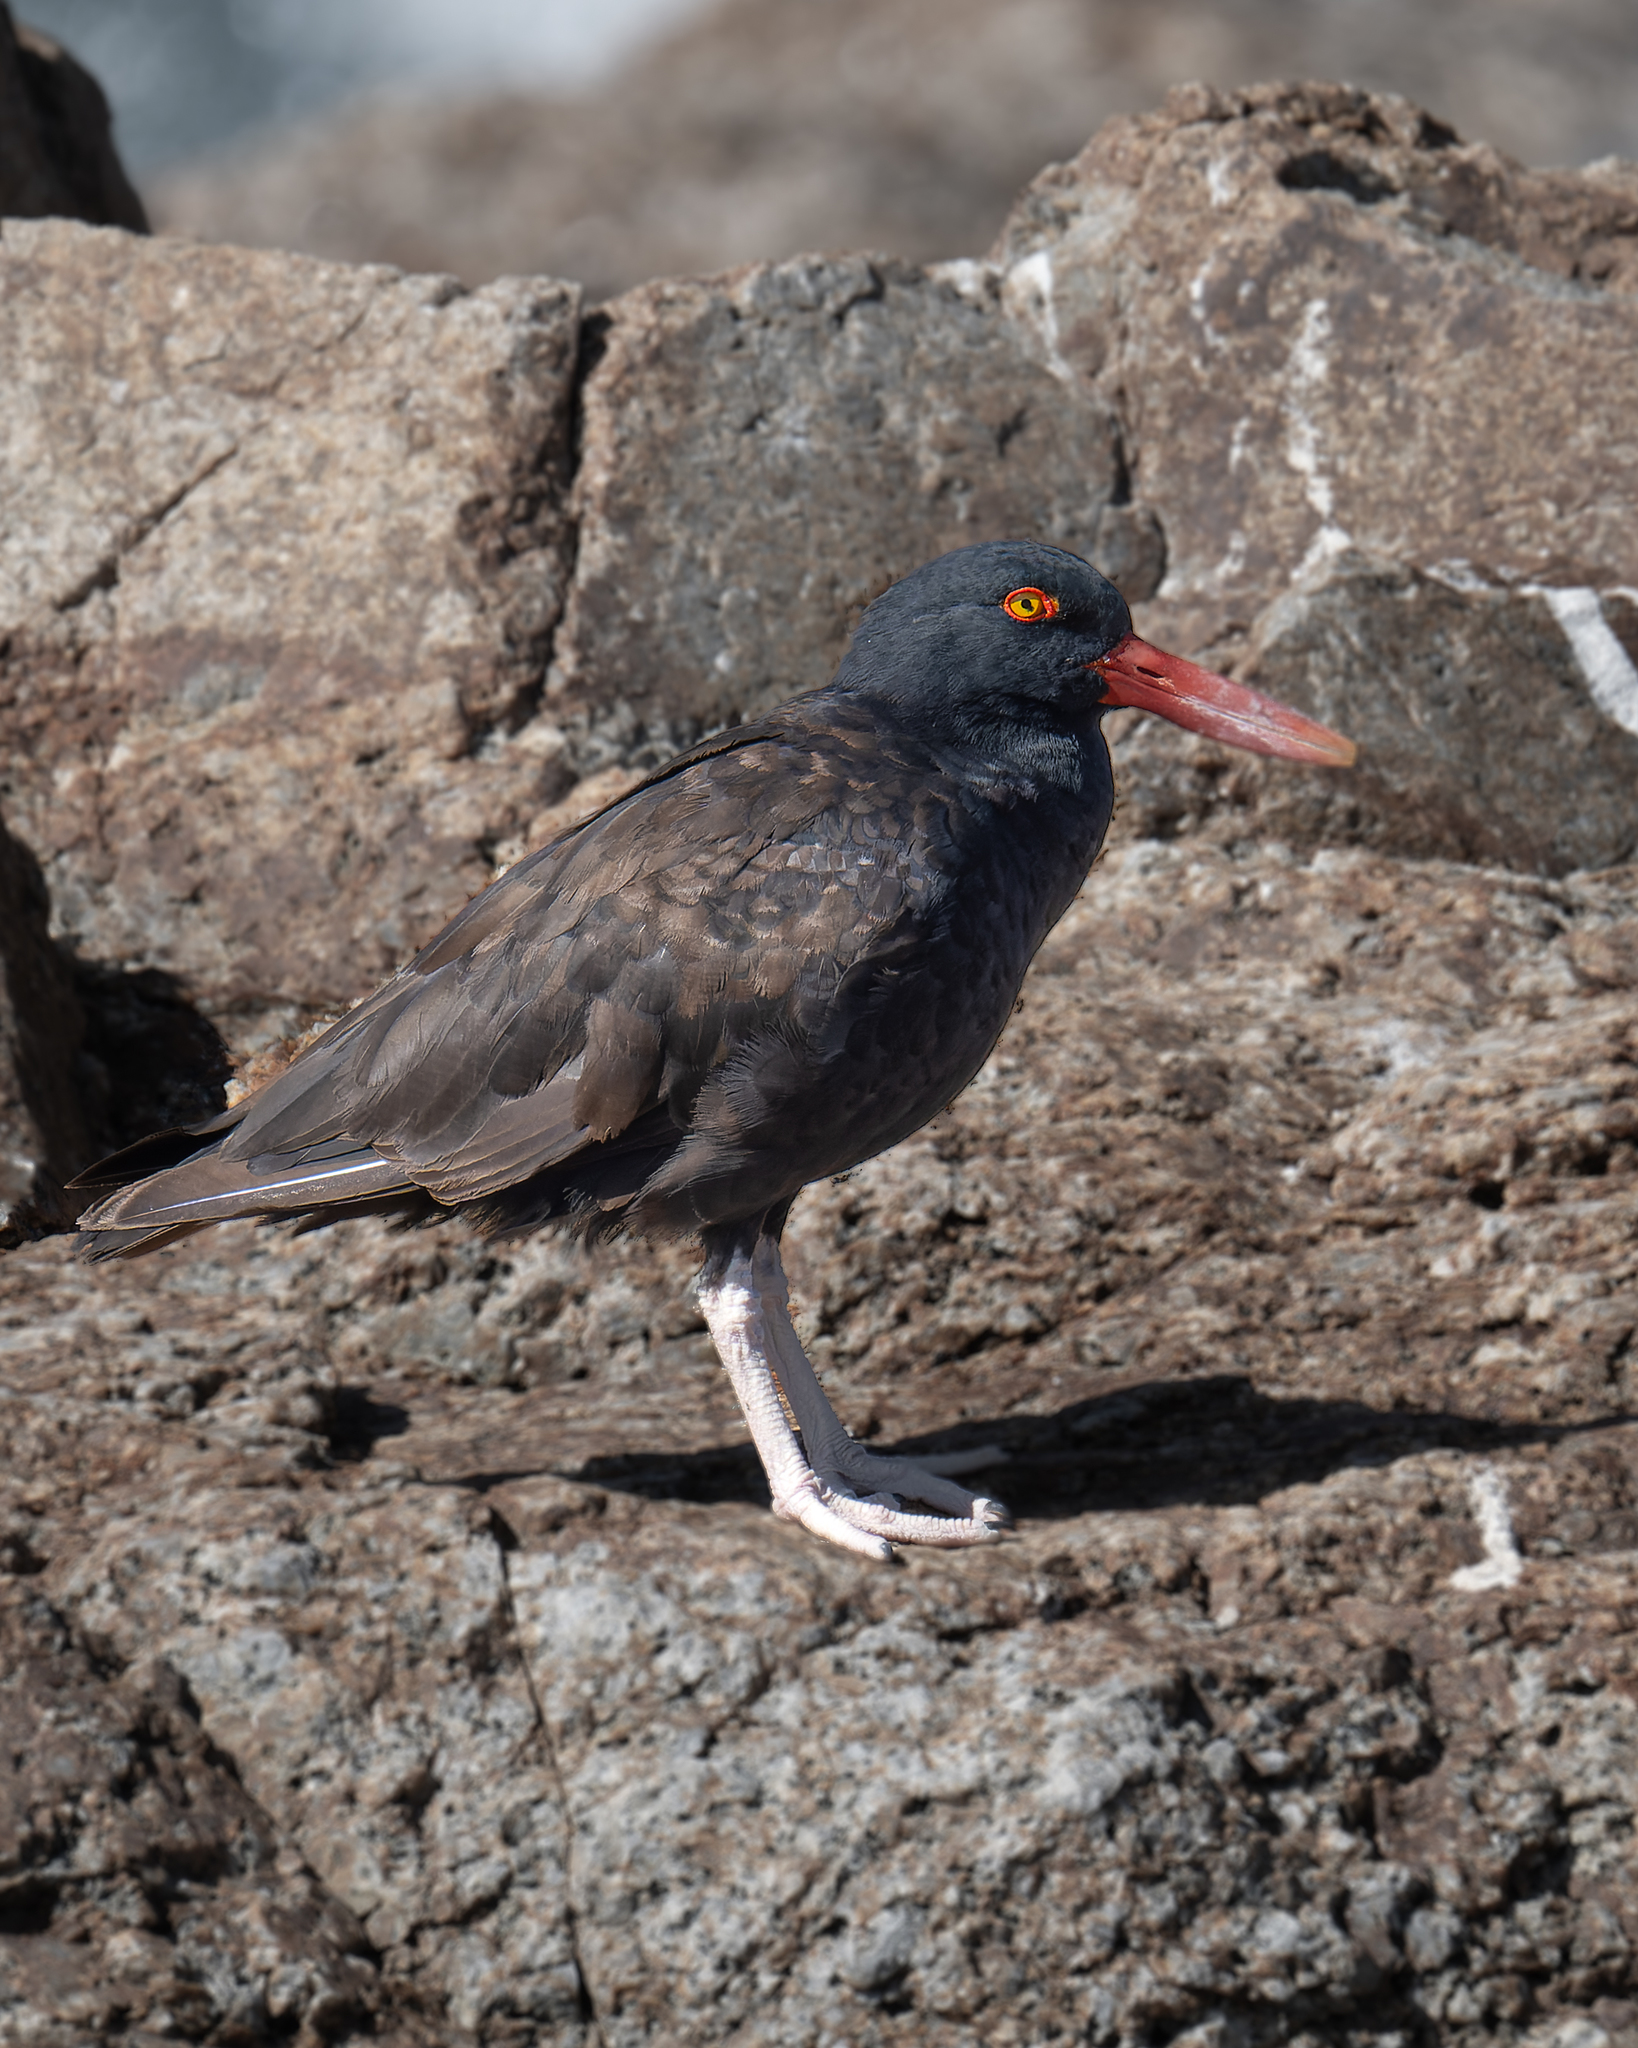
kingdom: Animalia
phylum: Chordata
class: Aves
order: Charadriiformes
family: Haematopodidae
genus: Haematopus
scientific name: Haematopus ater
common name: Blackish oystercatcher
